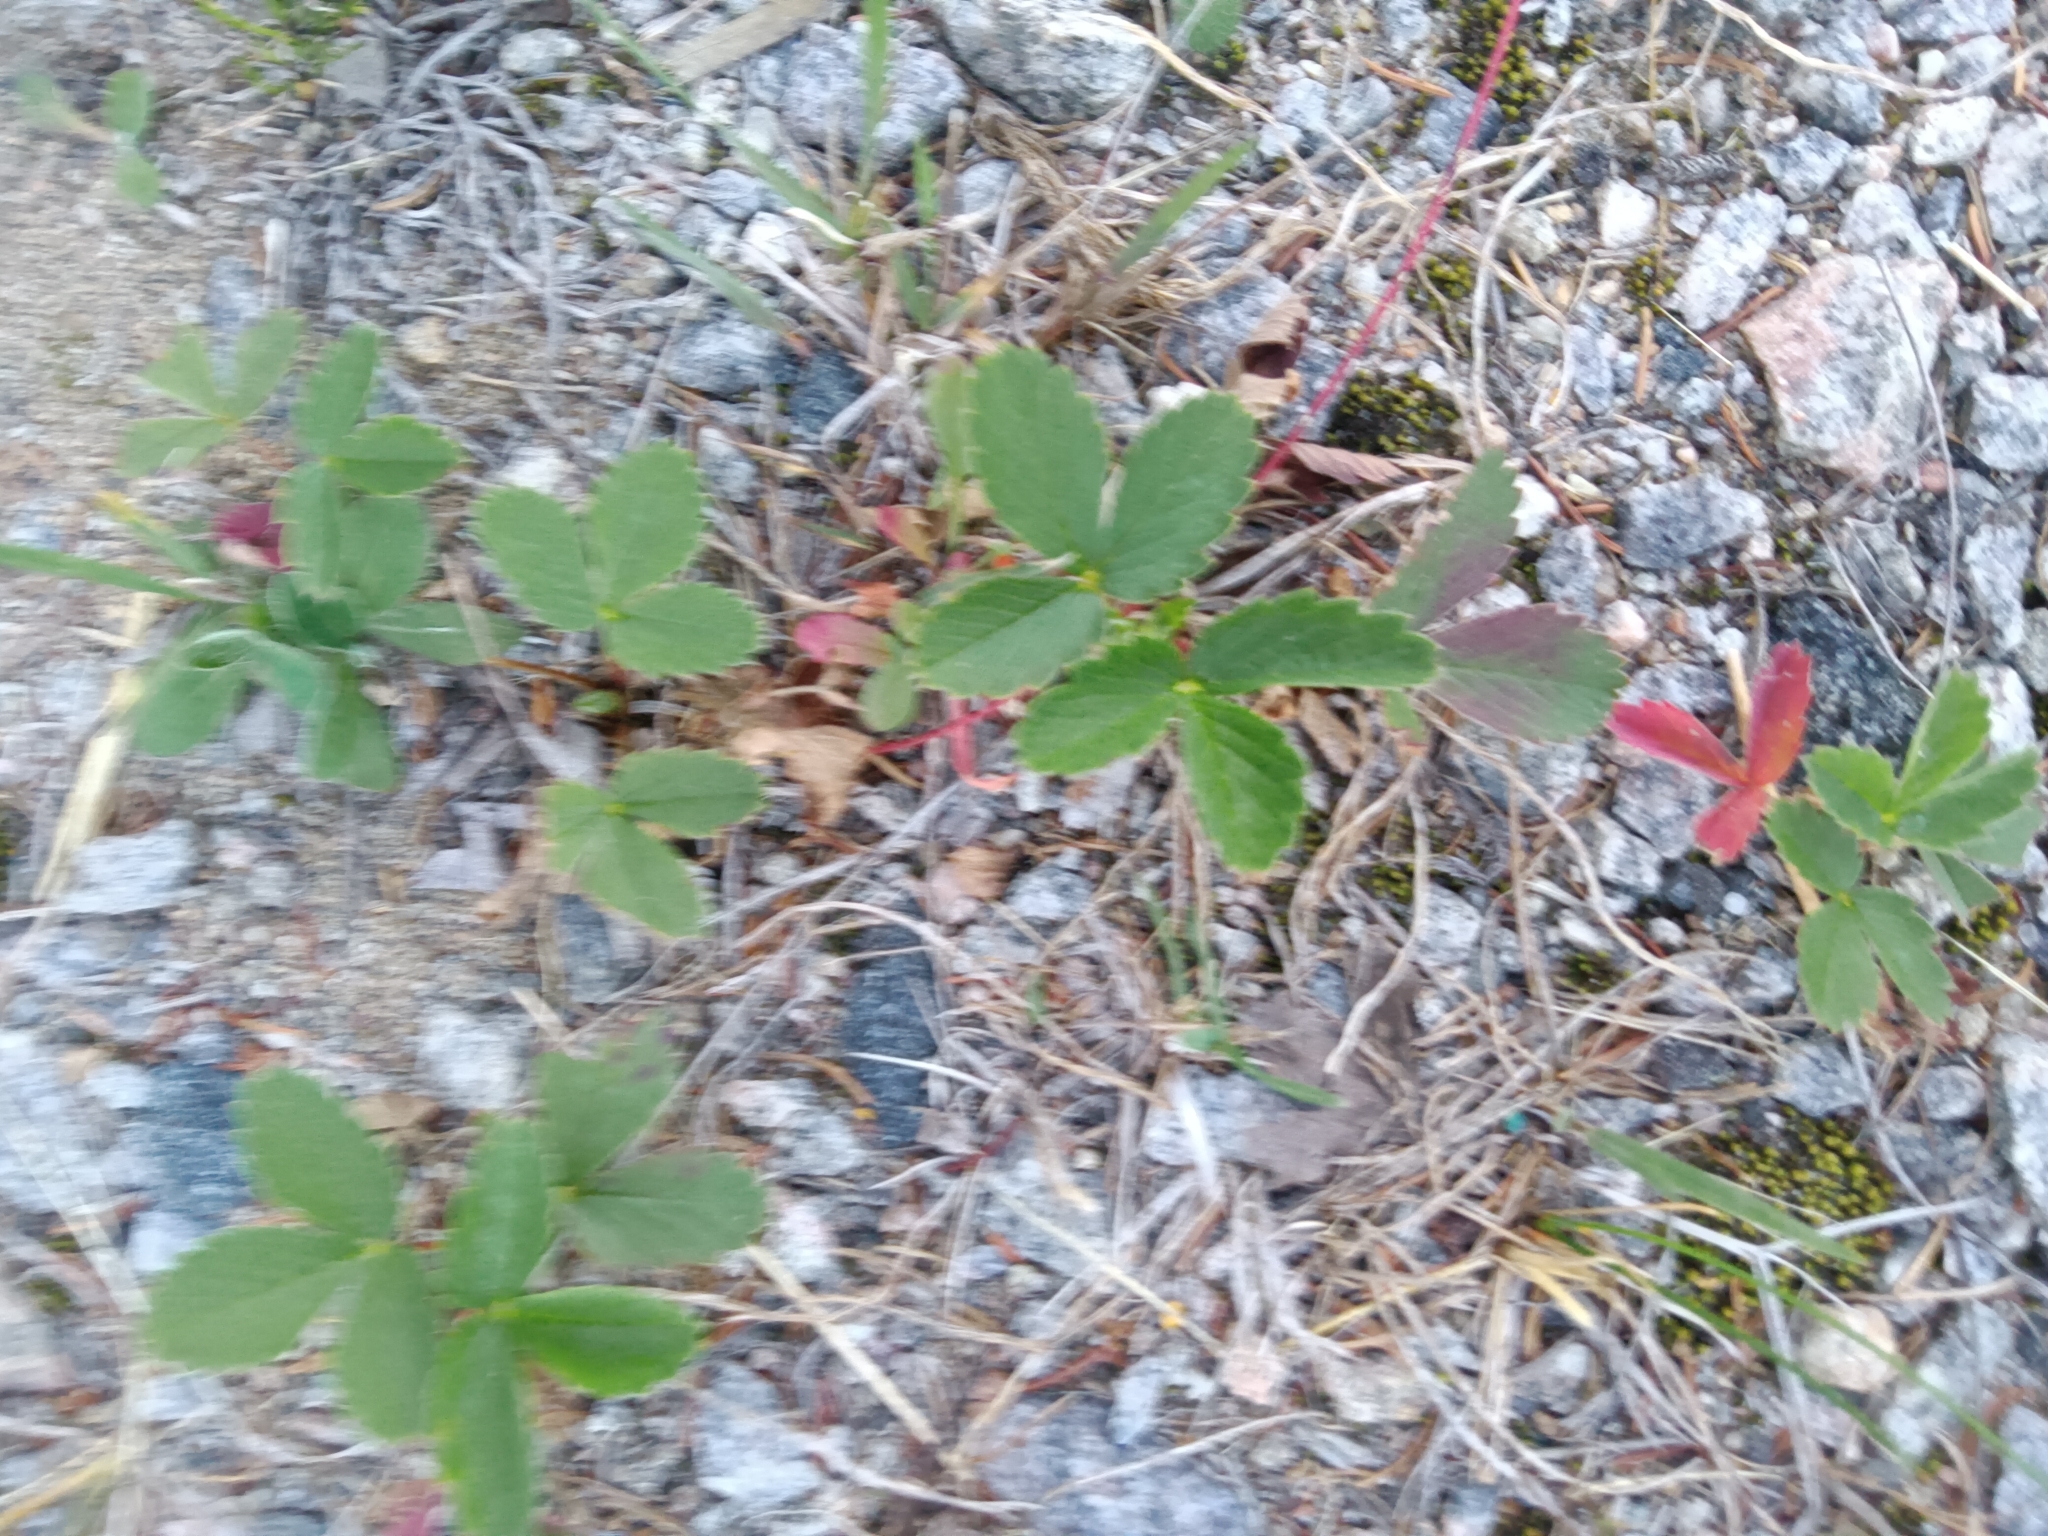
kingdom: Plantae
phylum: Tracheophyta
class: Magnoliopsida
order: Rosales
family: Rosaceae
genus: Fragaria
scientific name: Fragaria virginiana
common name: Thickleaved wild strawberry
